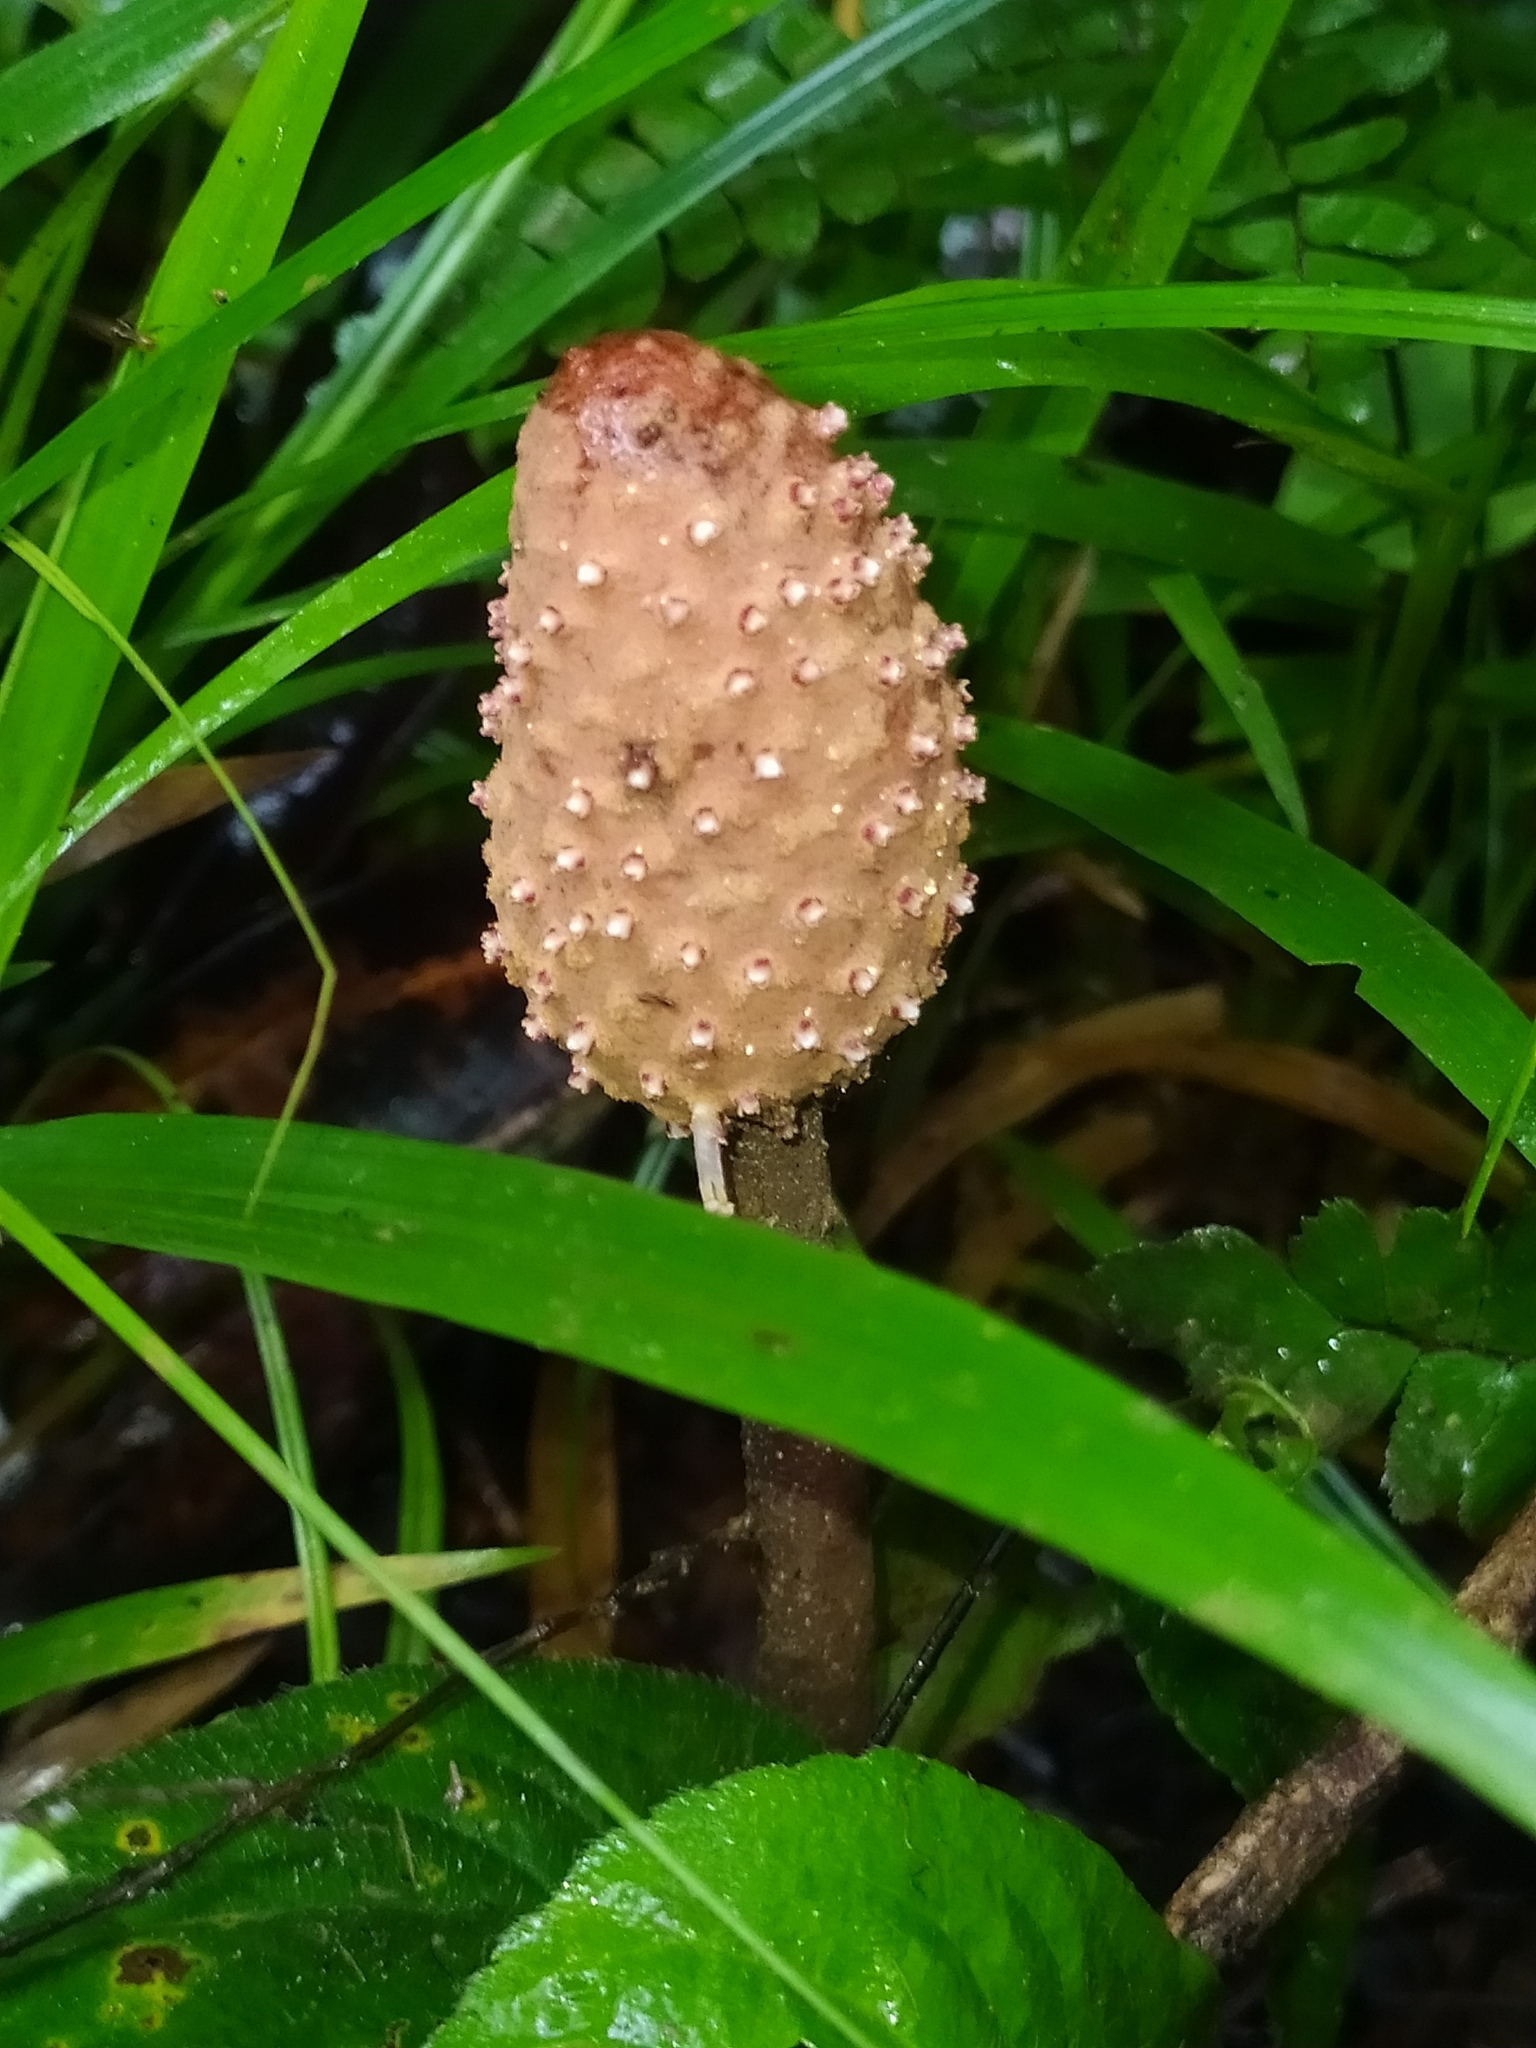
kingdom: Plantae
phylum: Tracheophyta
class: Magnoliopsida
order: Santalales
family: Balanophoraceae
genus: Helosis
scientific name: Helosis cayennensis
